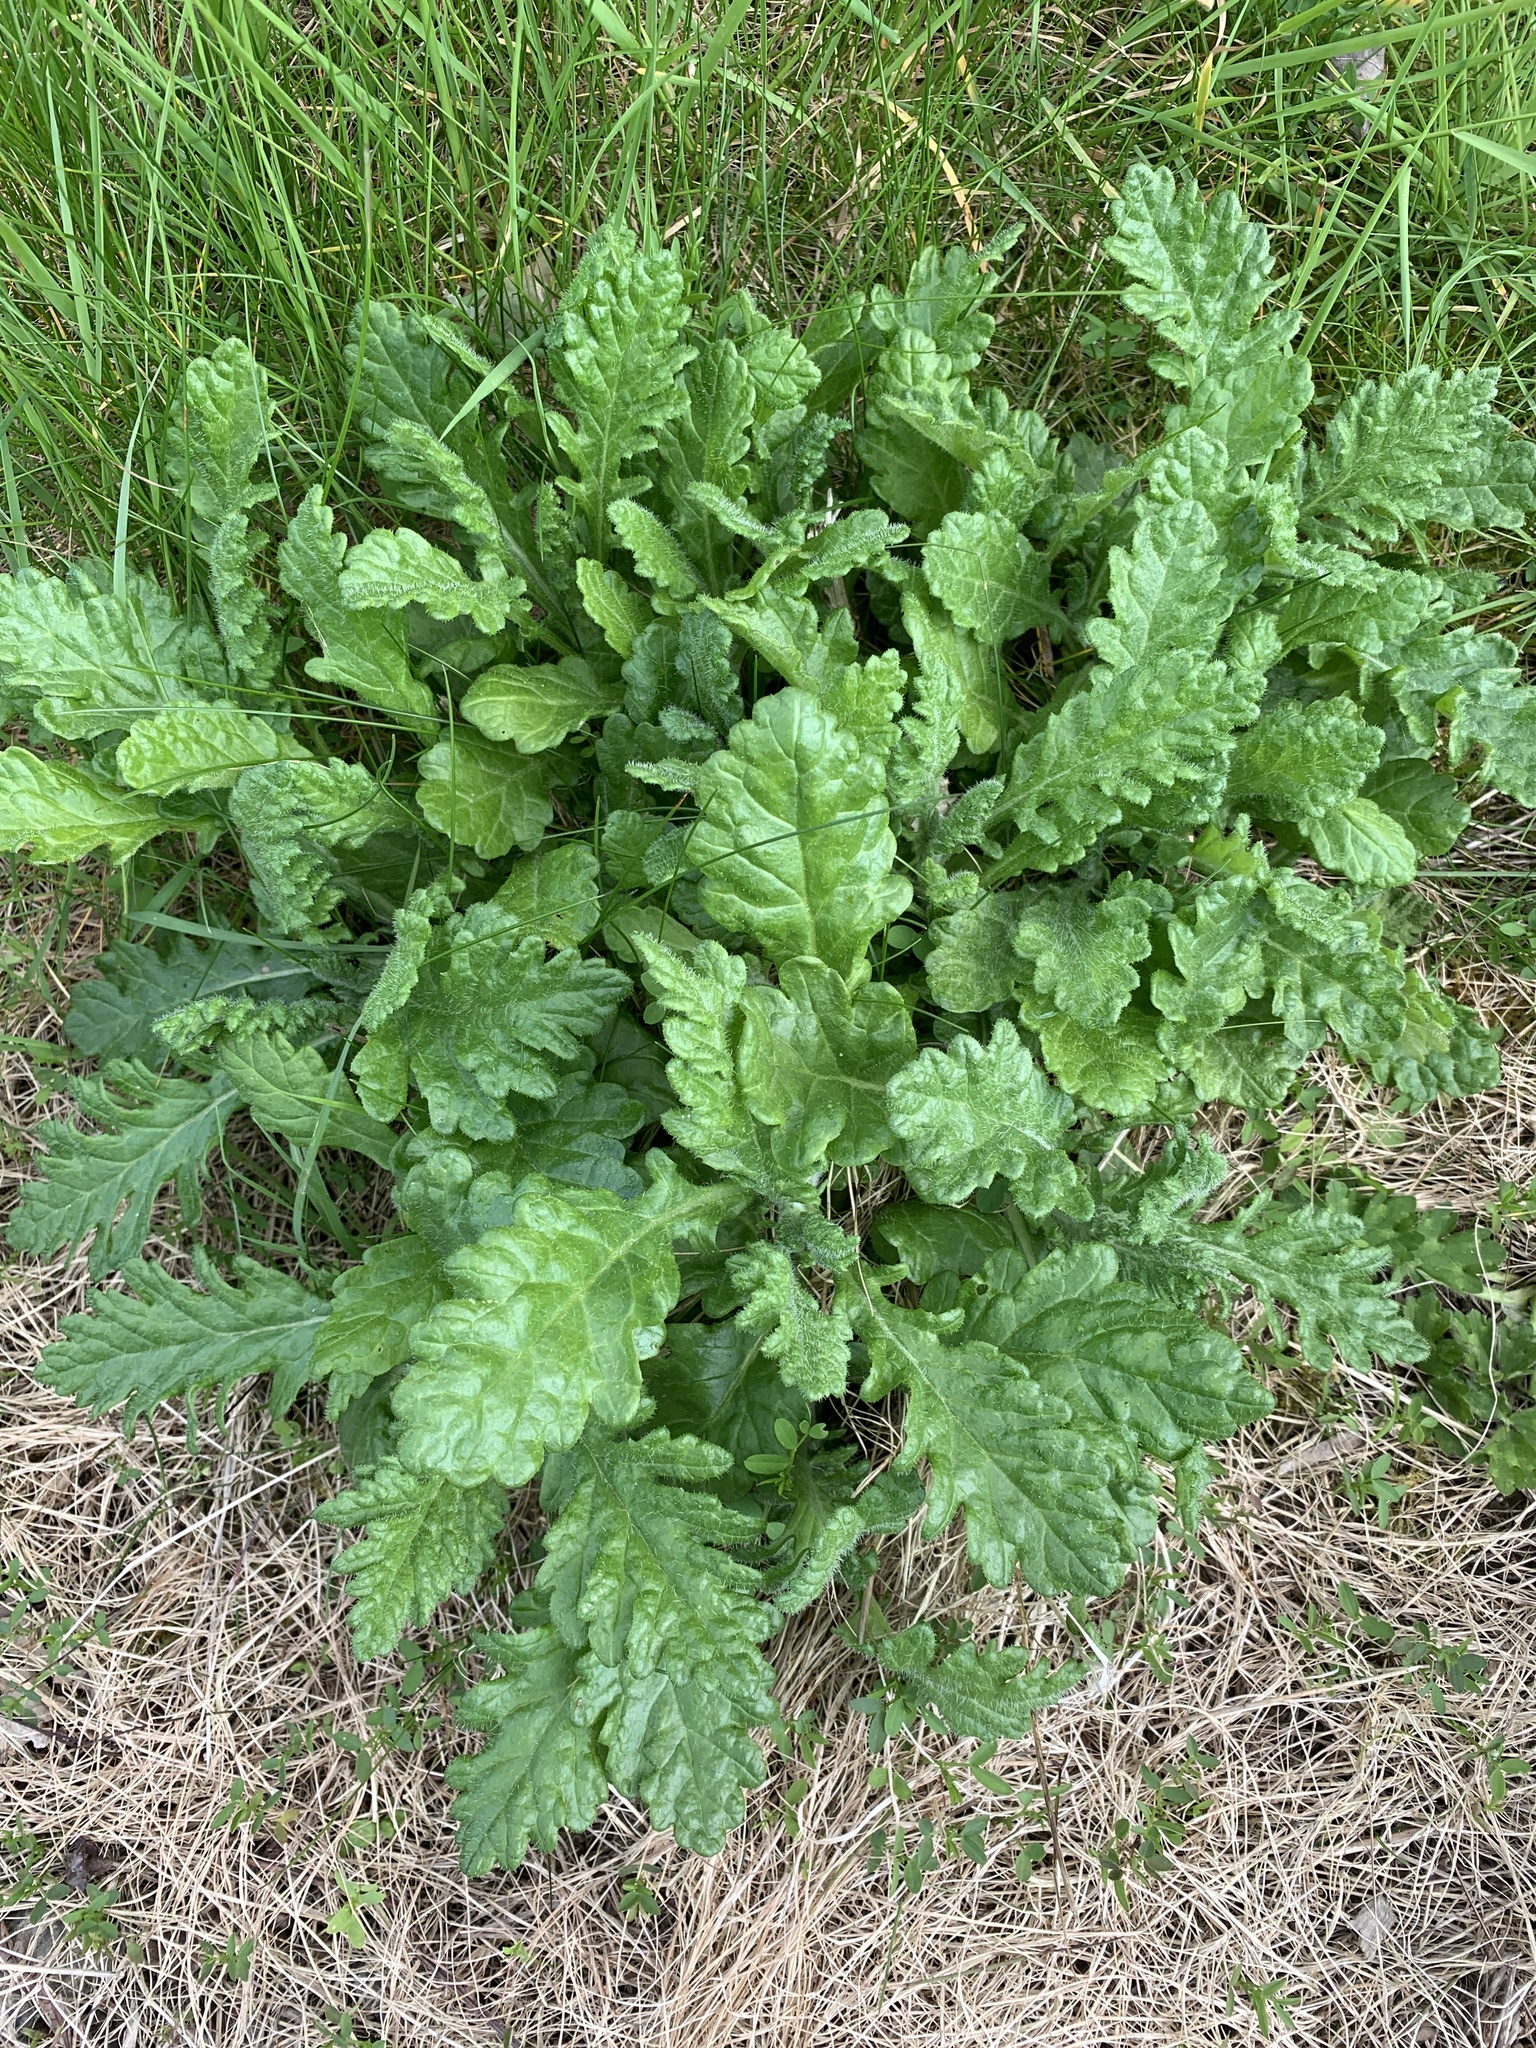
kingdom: Plantae
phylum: Tracheophyta
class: Magnoliopsida
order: Asterales
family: Asteraceae
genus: Jacobaea
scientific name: Jacobaea vulgaris
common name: Stinking willie
